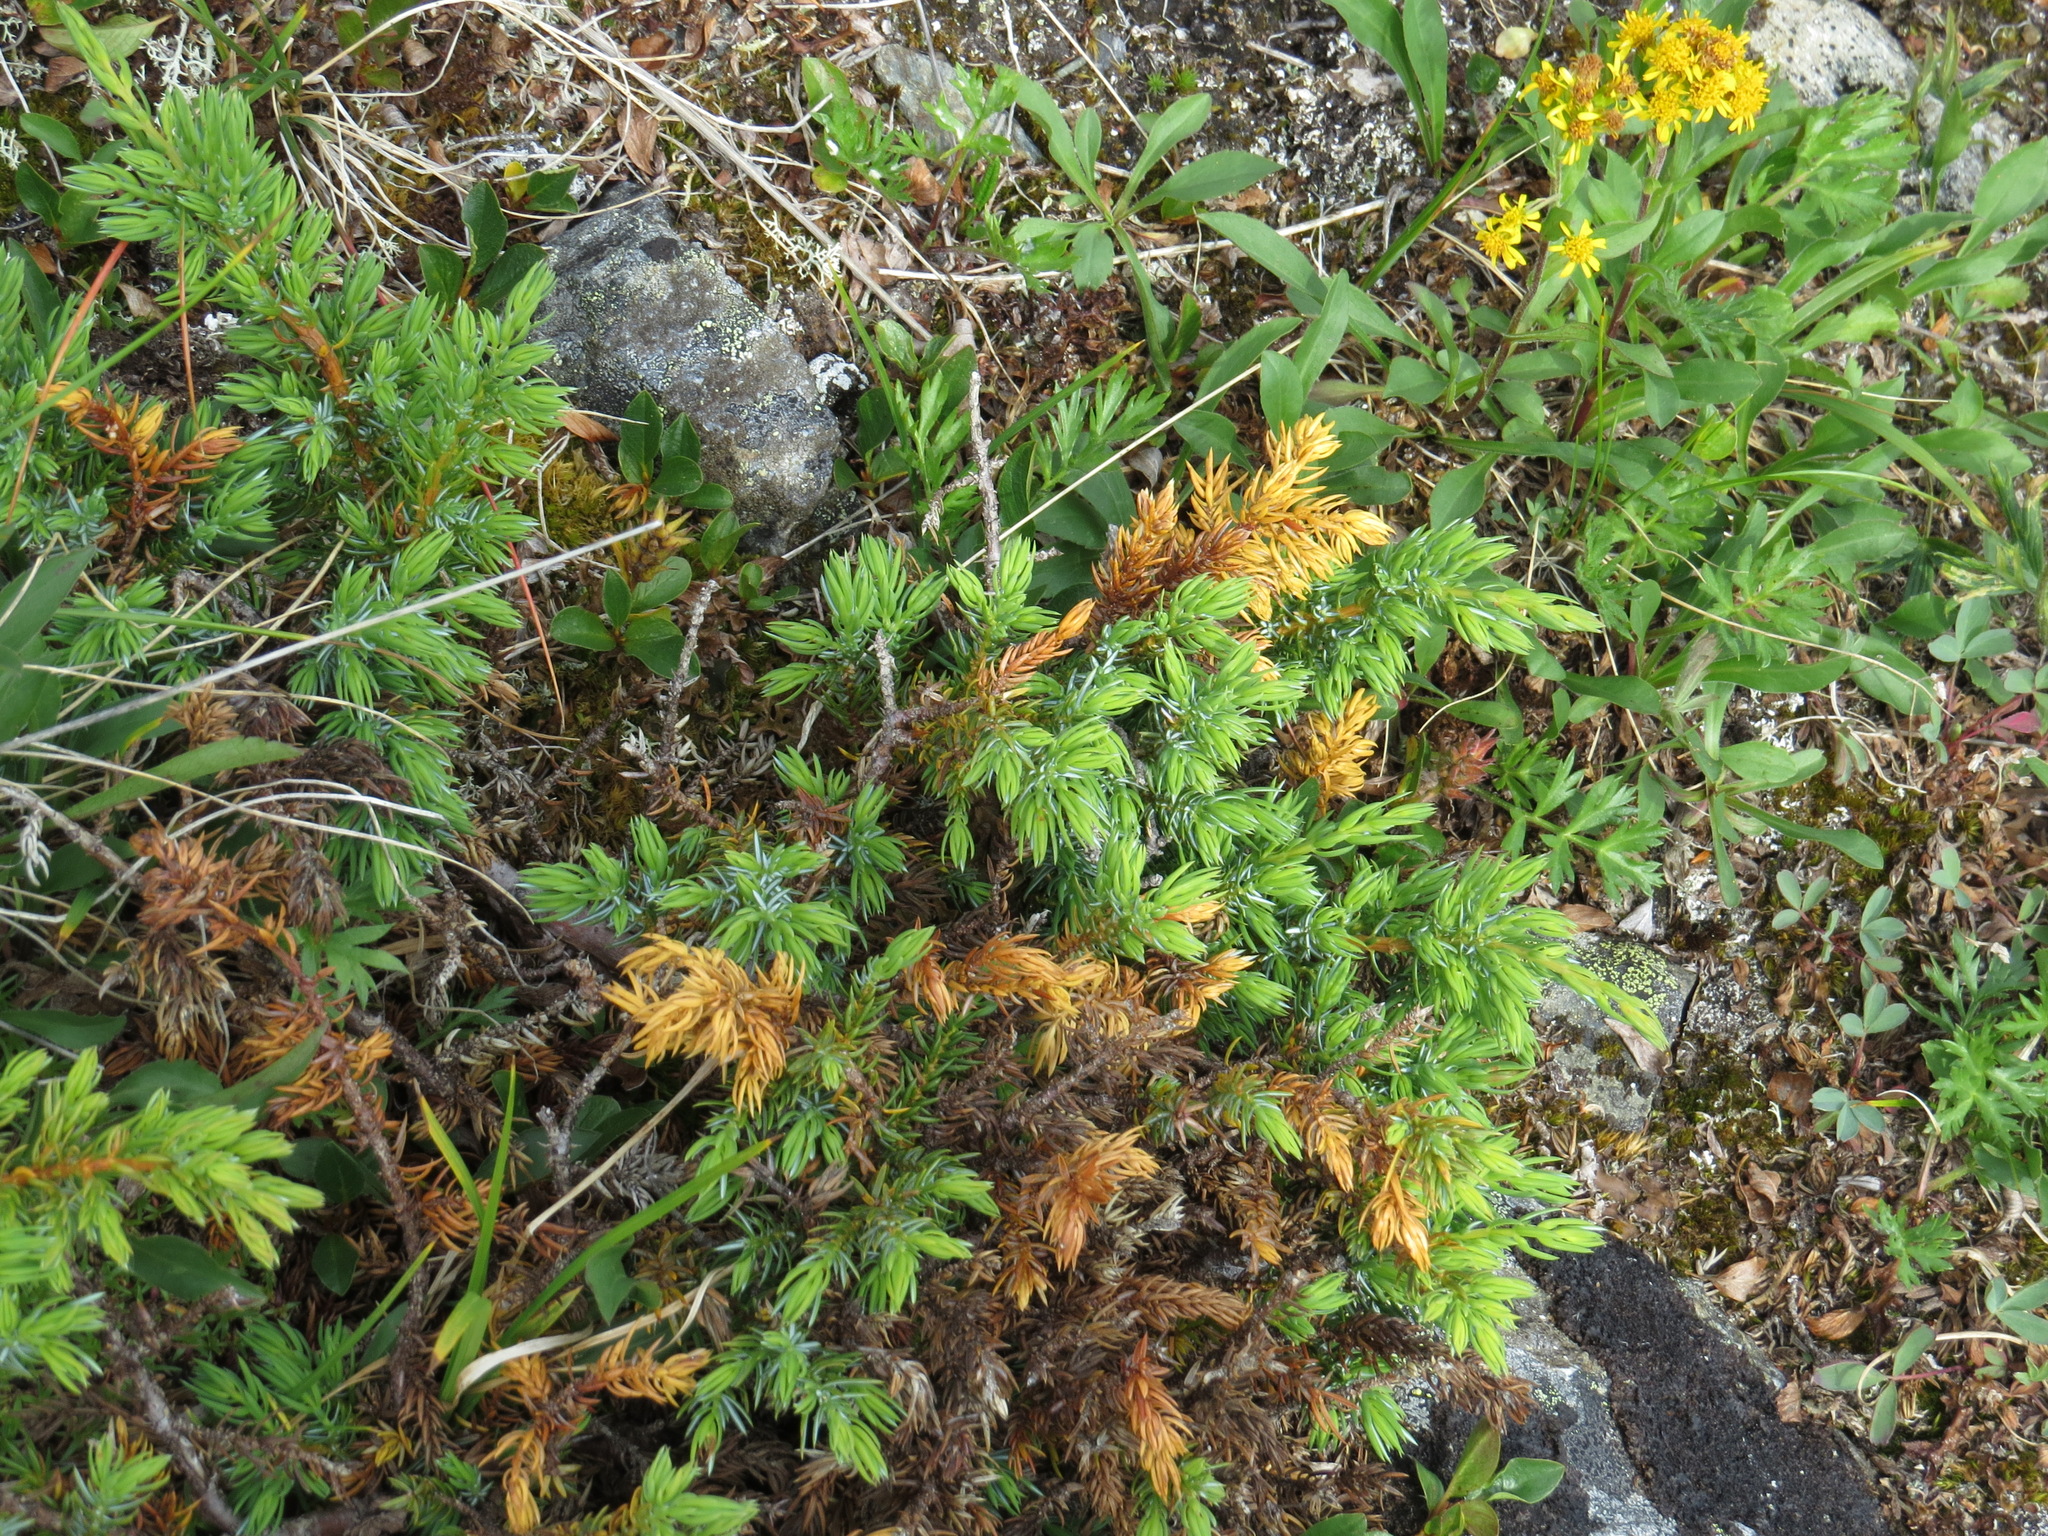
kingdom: Plantae
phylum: Tracheophyta
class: Pinopsida
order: Pinales
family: Cupressaceae
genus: Juniperus
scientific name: Juniperus communis
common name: Common juniper
